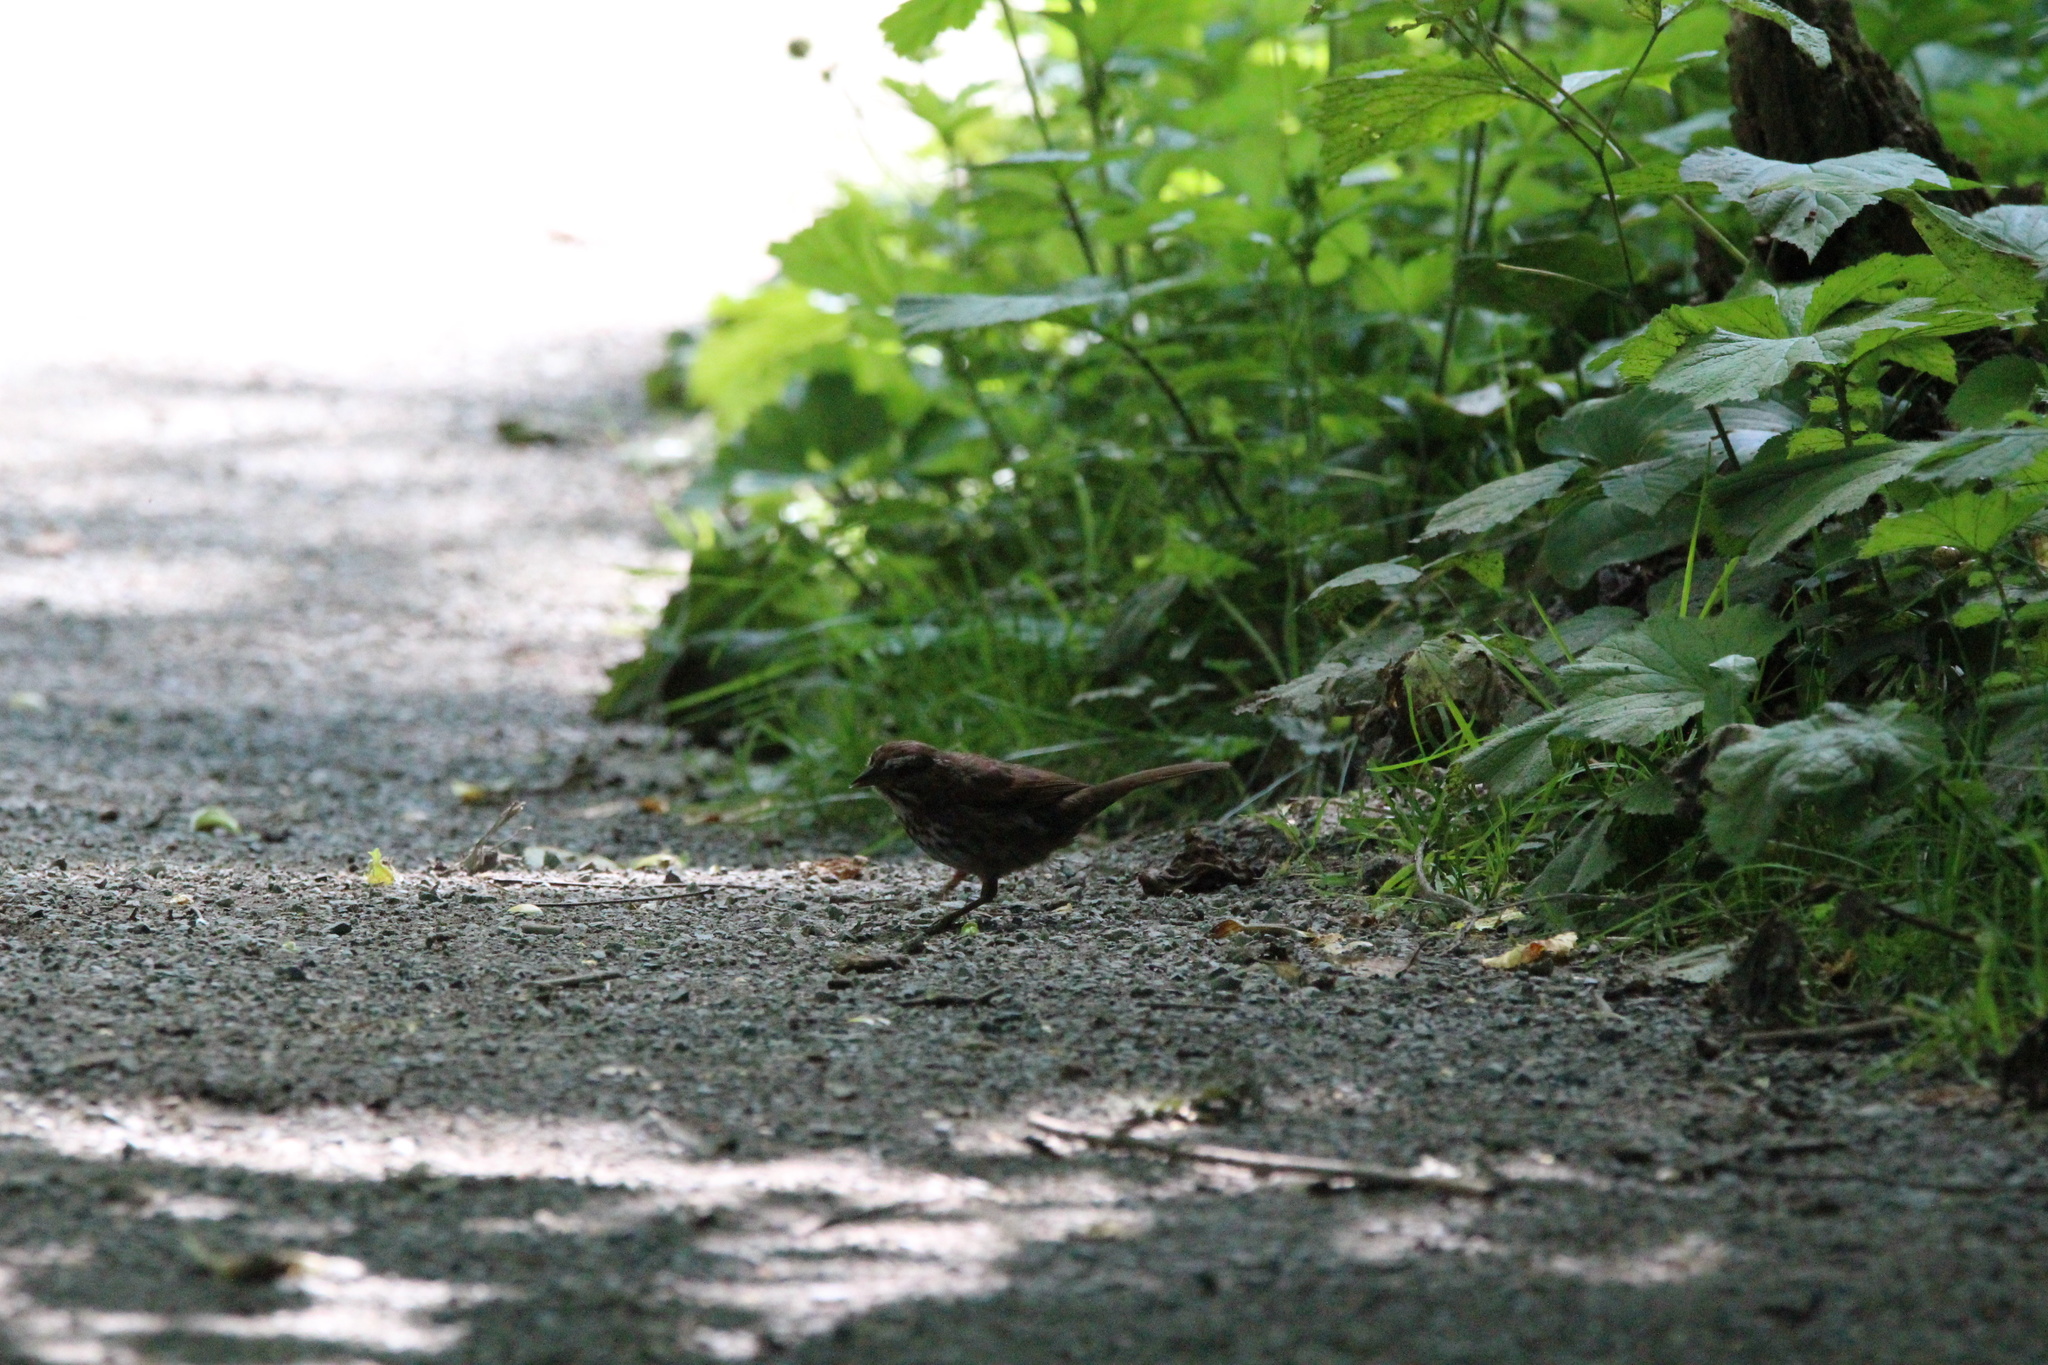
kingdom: Animalia
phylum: Chordata
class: Aves
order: Passeriformes
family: Passerellidae
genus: Melospiza
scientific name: Melospiza melodia
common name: Song sparrow
